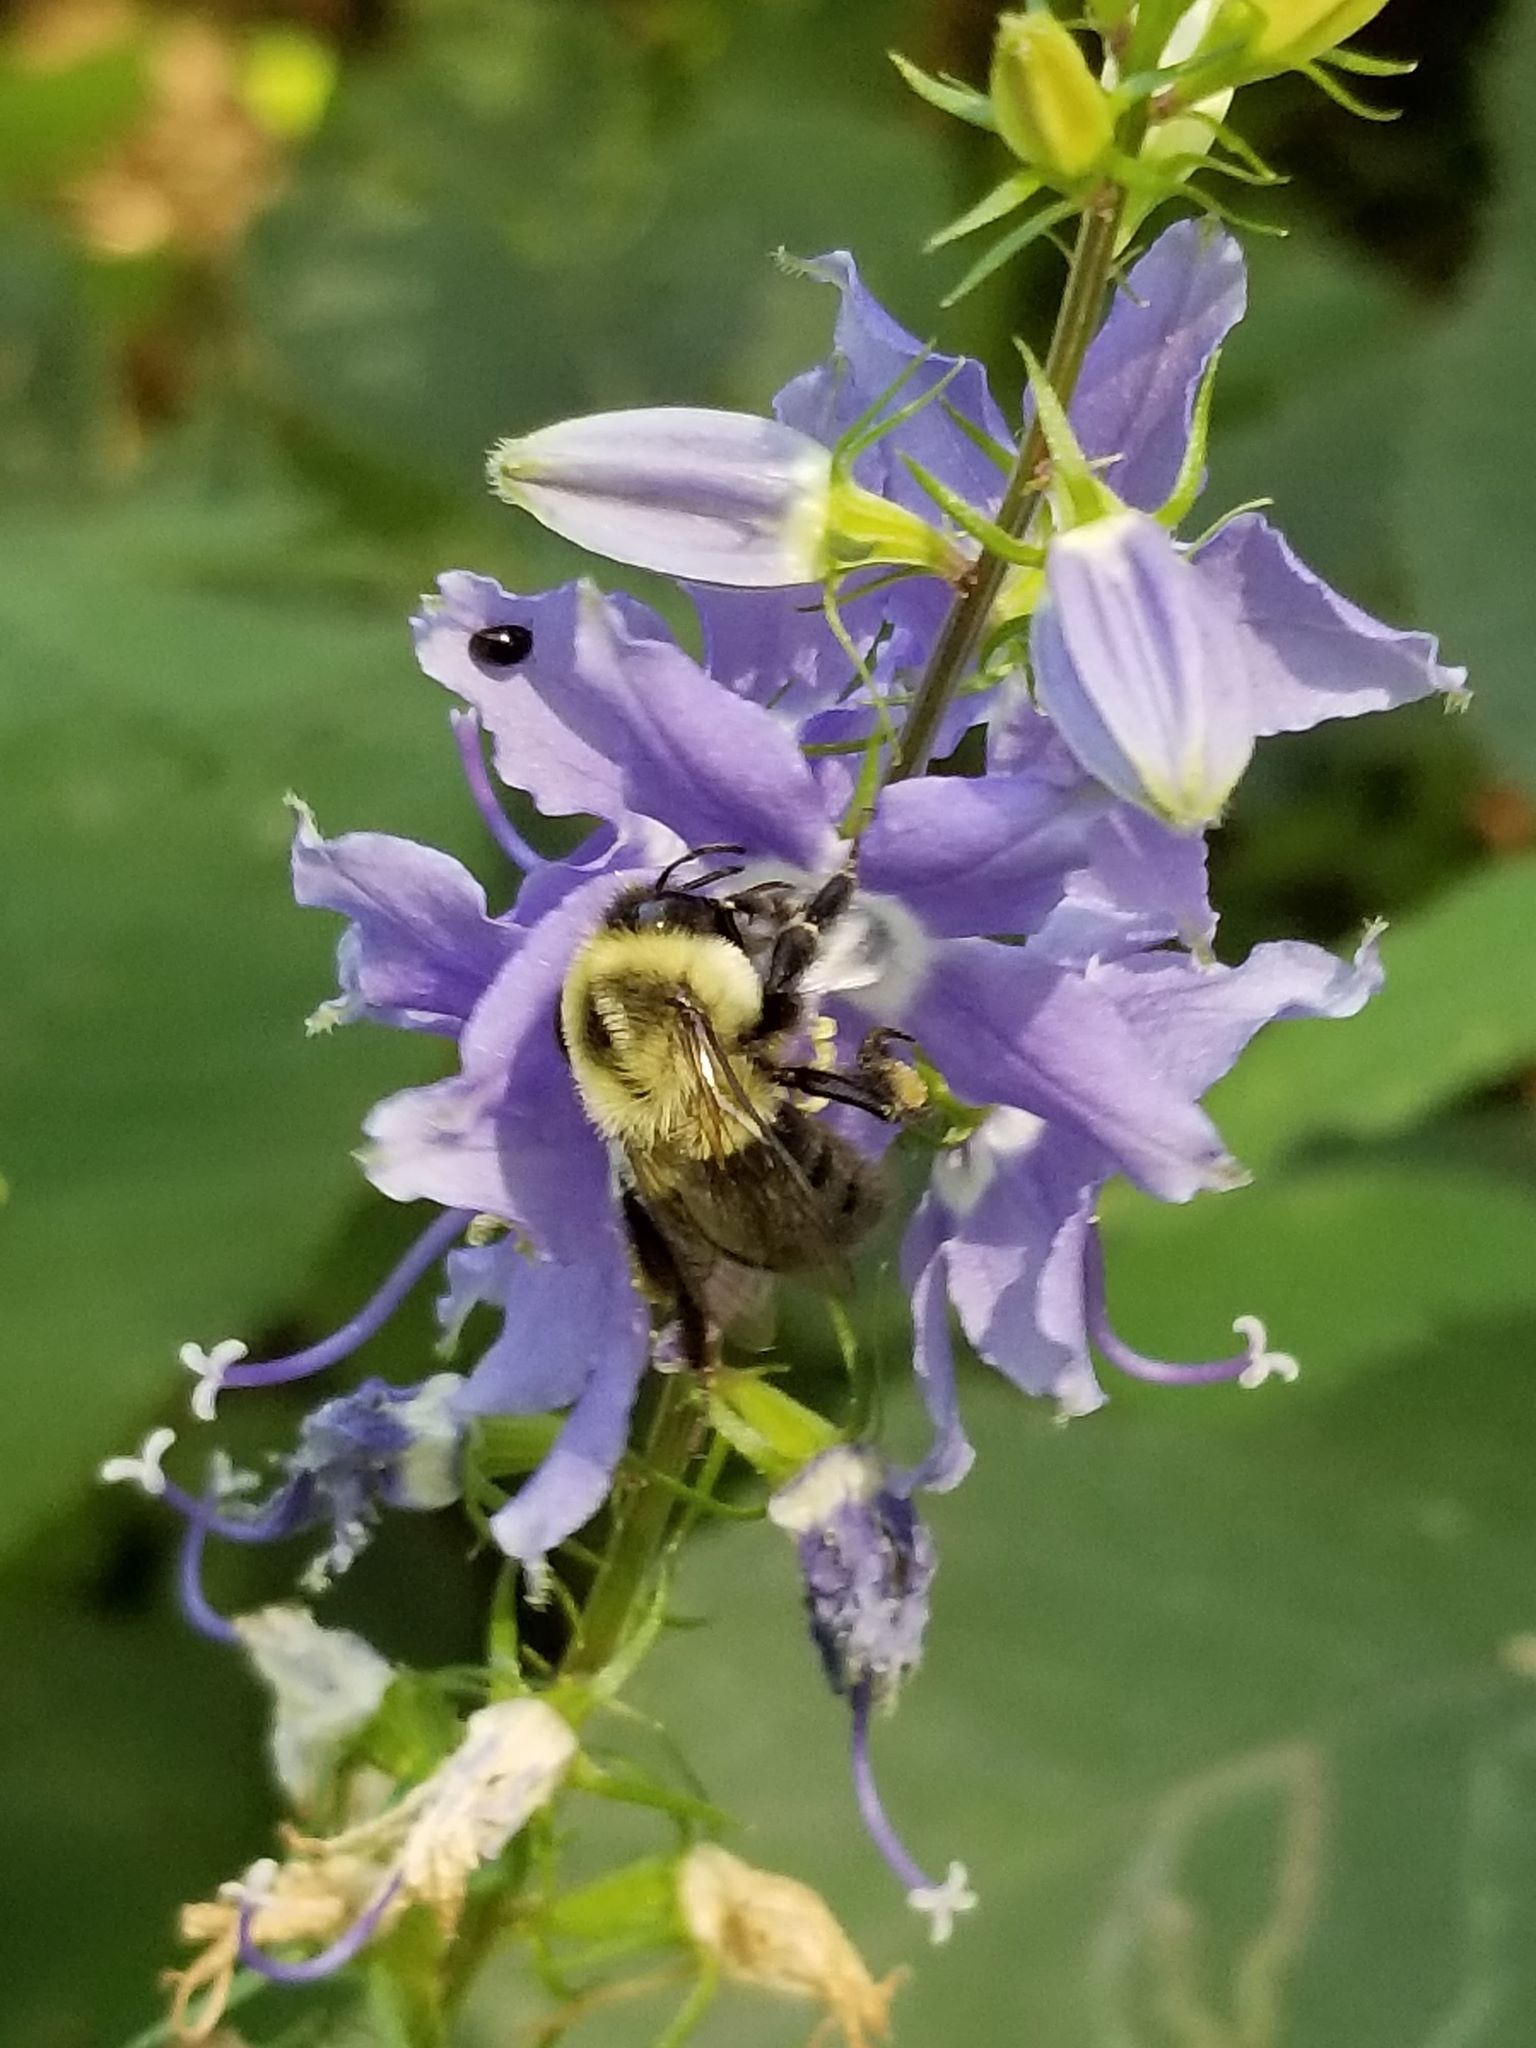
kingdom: Animalia
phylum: Arthropoda
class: Insecta
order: Hymenoptera
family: Apidae
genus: Bombus
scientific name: Bombus impatiens
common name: Common eastern bumble bee
